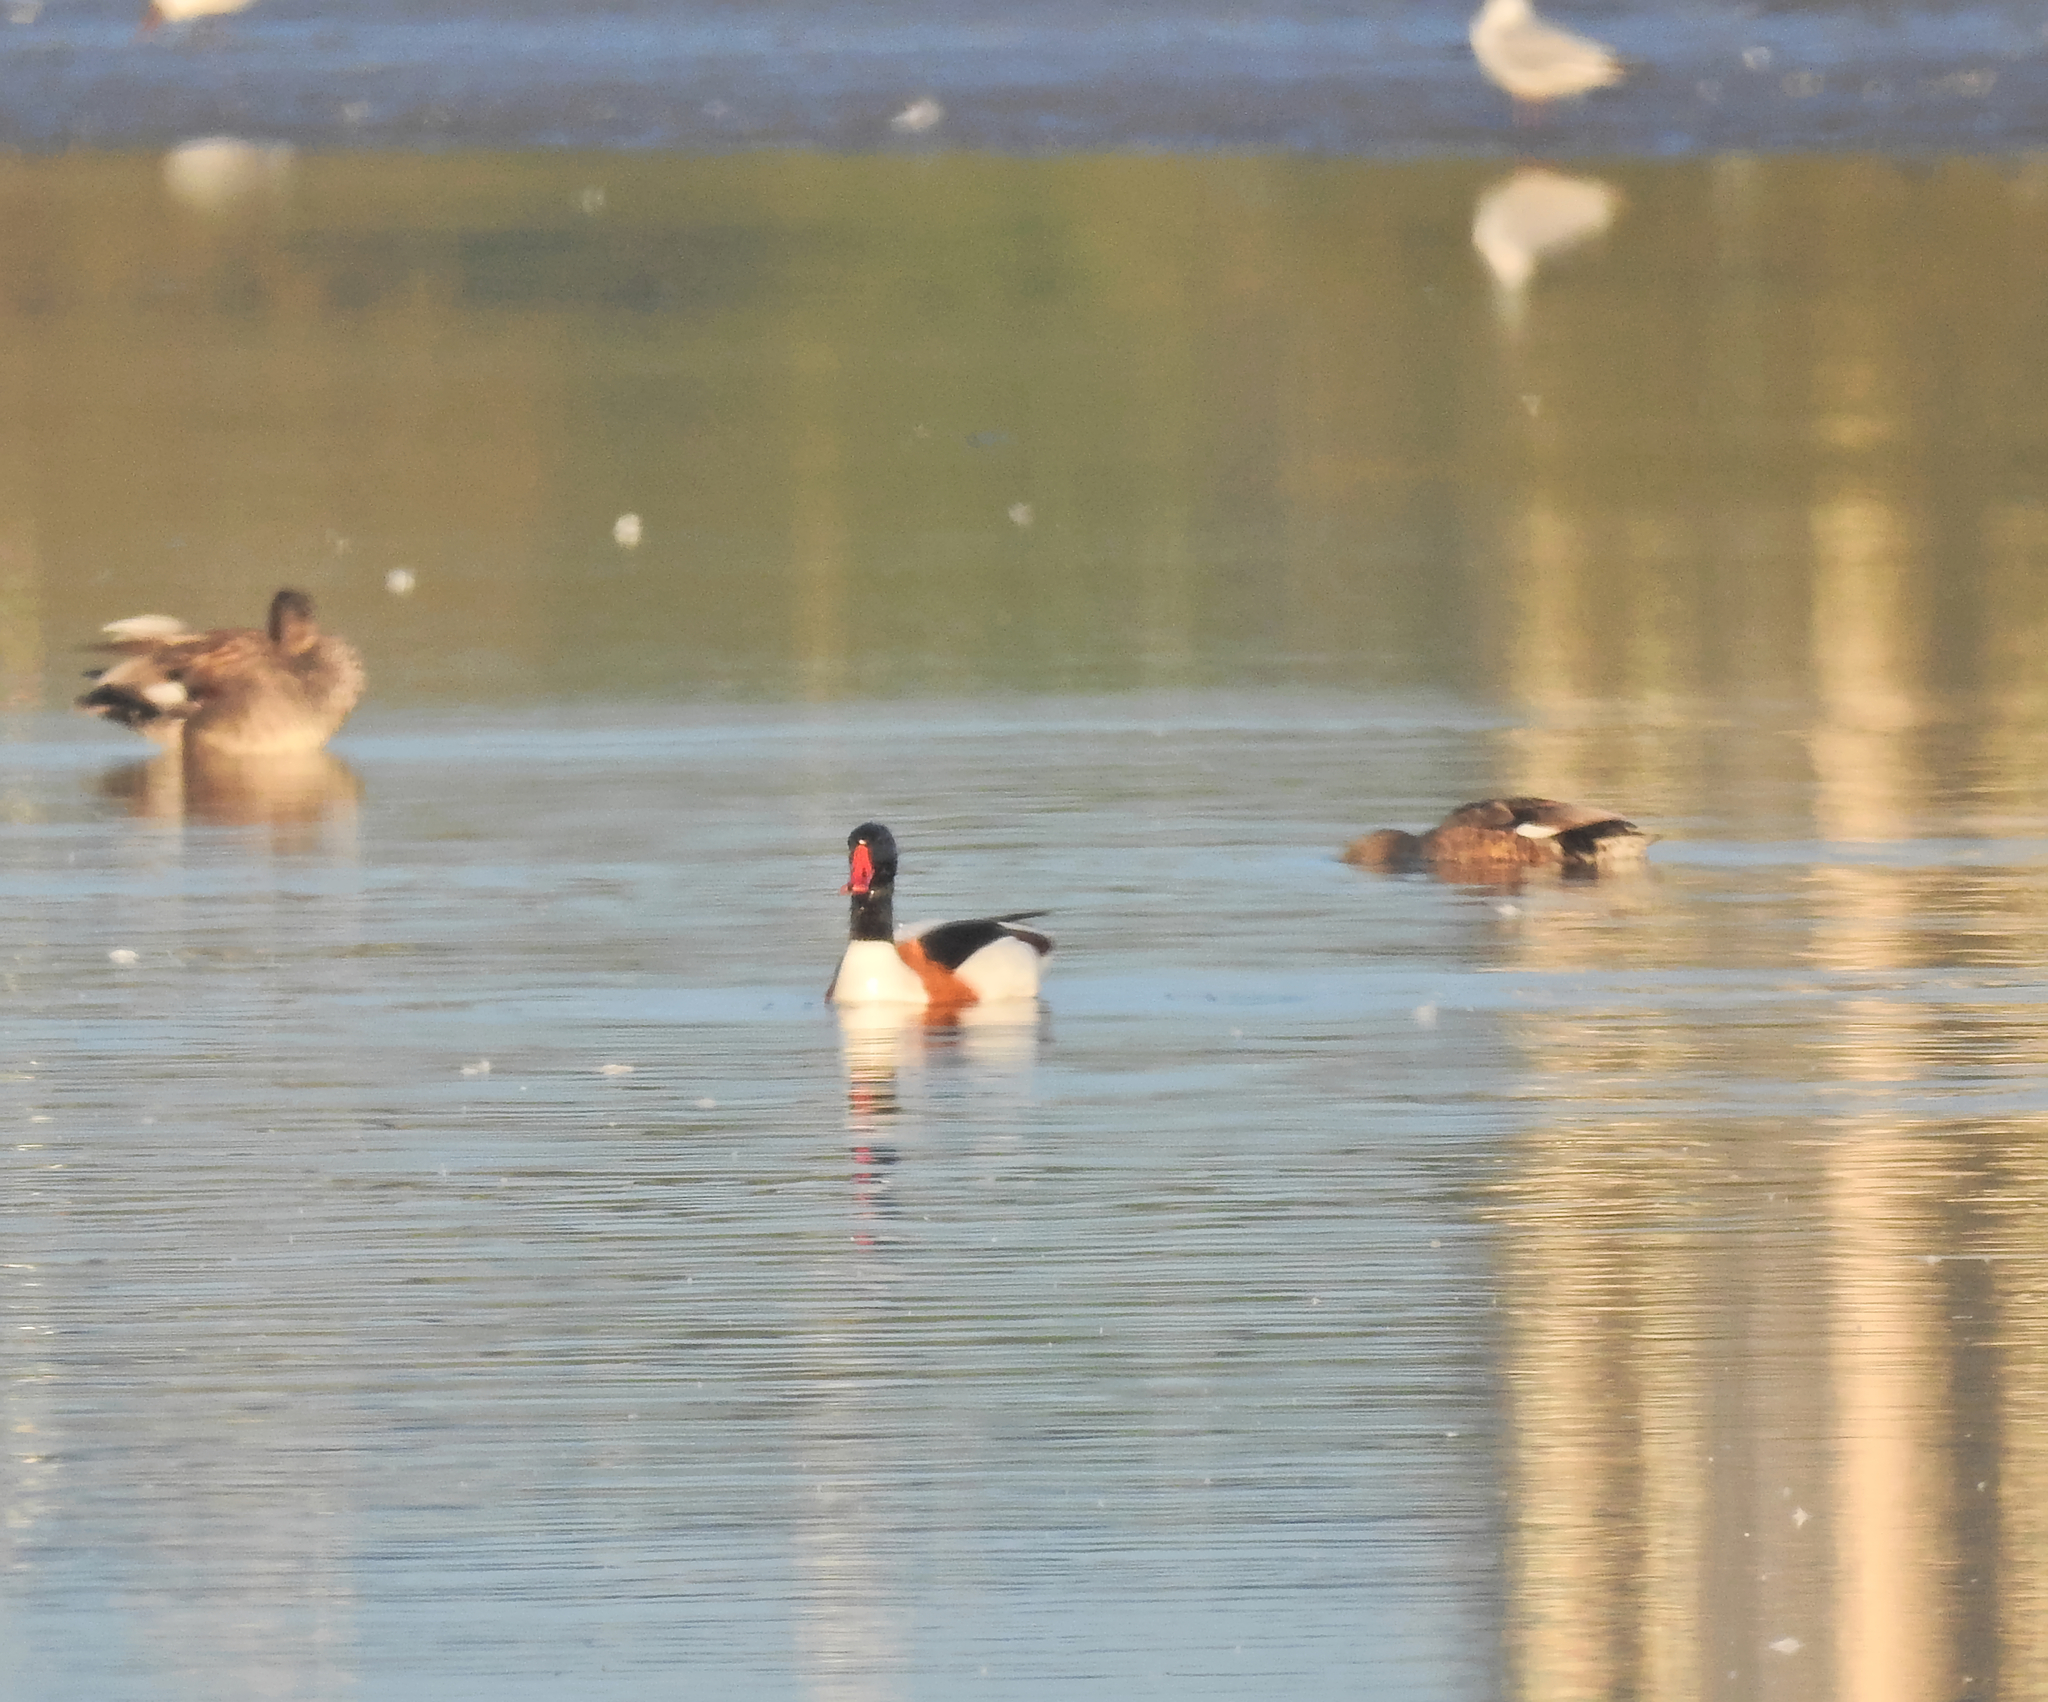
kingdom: Animalia
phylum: Chordata
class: Aves
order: Anseriformes
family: Anatidae
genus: Tadorna
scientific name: Tadorna tadorna
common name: Common shelduck
